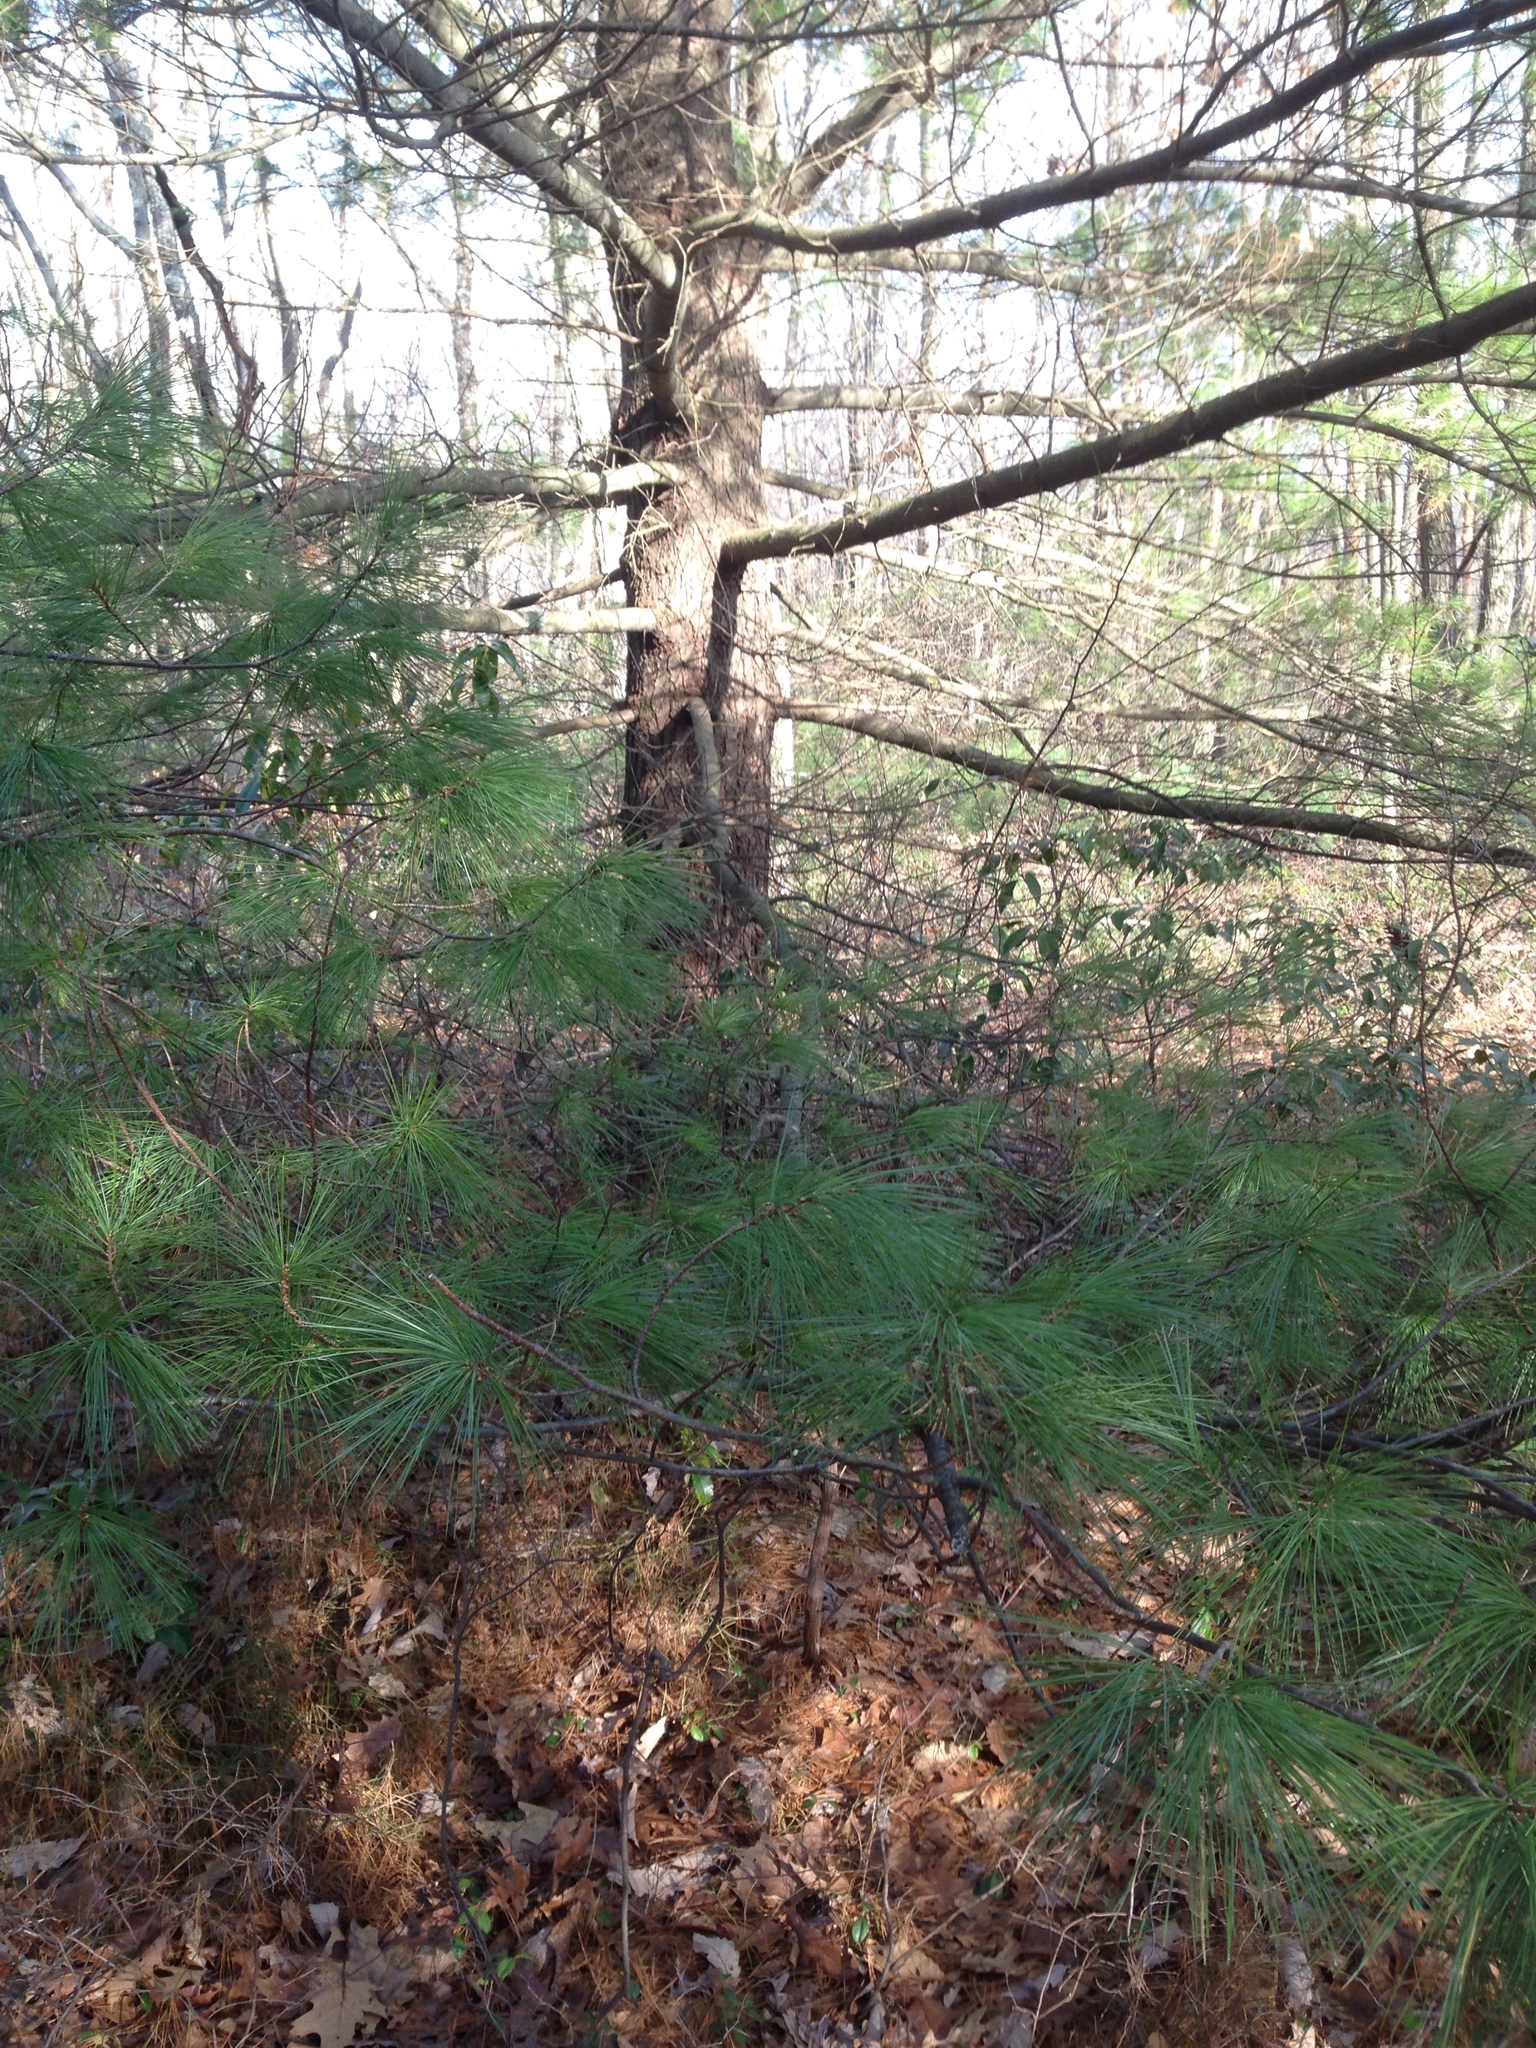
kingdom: Plantae
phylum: Tracheophyta
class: Pinopsida
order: Pinales
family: Pinaceae
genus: Pinus
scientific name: Pinus strobus
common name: Weymouth pine
